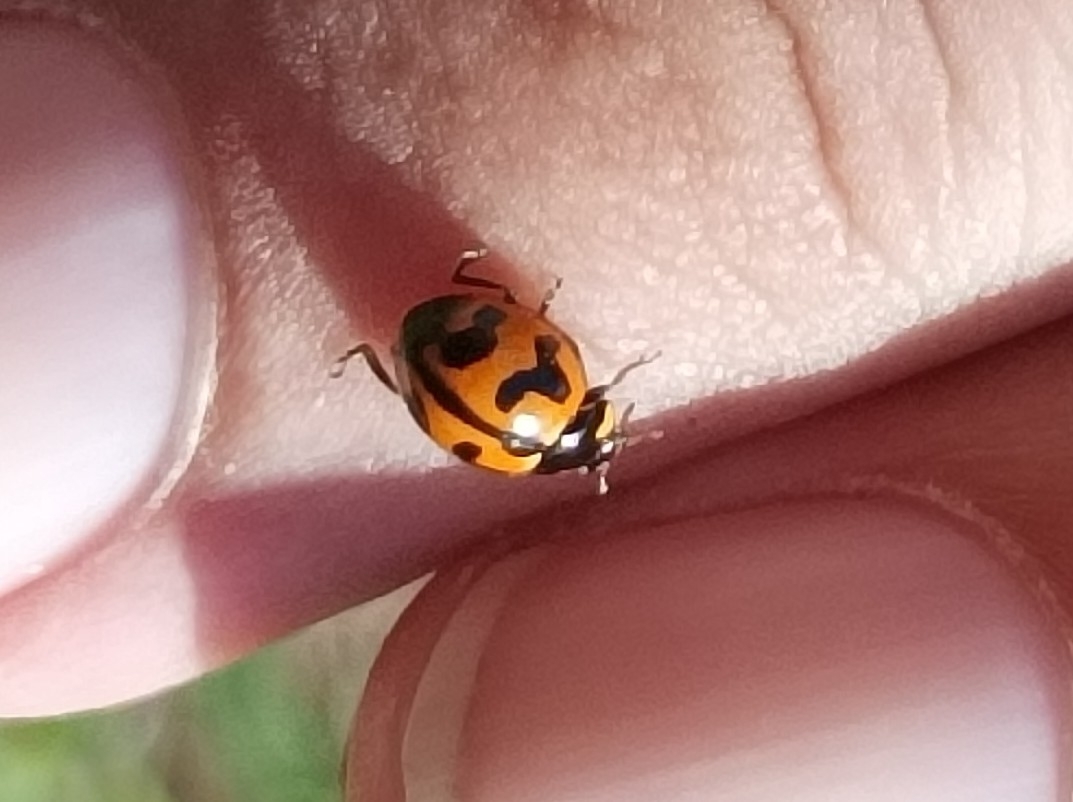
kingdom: Animalia
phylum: Arthropoda
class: Insecta
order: Coleoptera
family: Coccinellidae
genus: Coccinella
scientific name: Coccinella transversalis
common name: Transverse lady beetle
